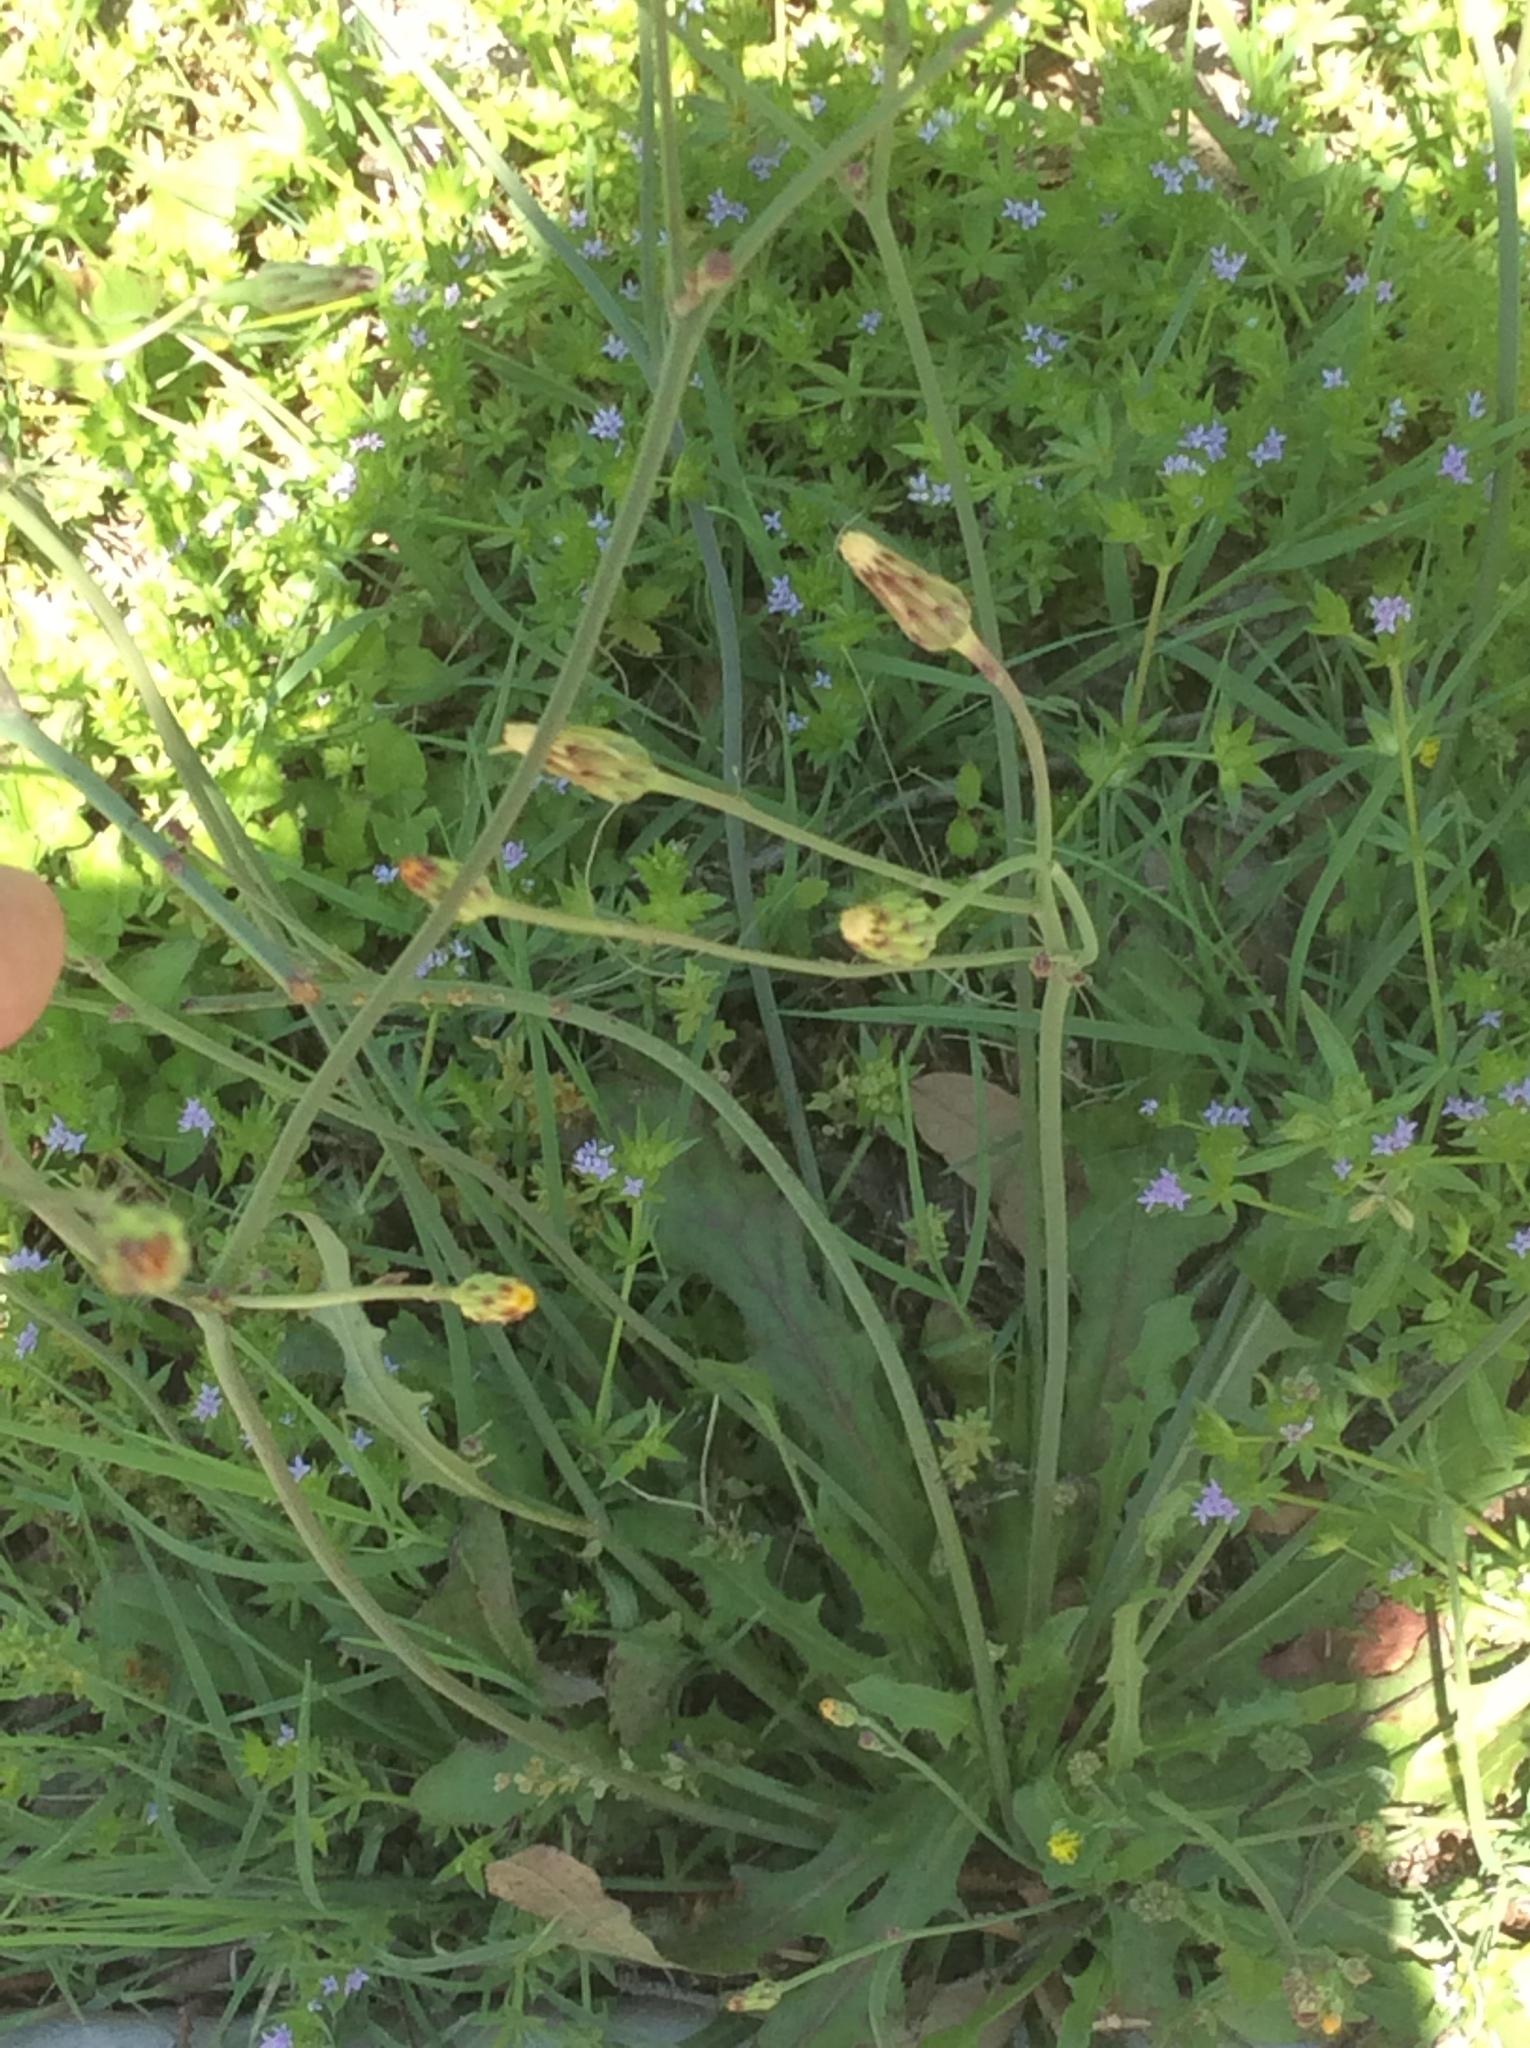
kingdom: Plantae
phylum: Tracheophyta
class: Magnoliopsida
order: Asterales
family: Asteraceae
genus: Hypochaeris
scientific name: Hypochaeris glabra
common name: Smooth catsear
